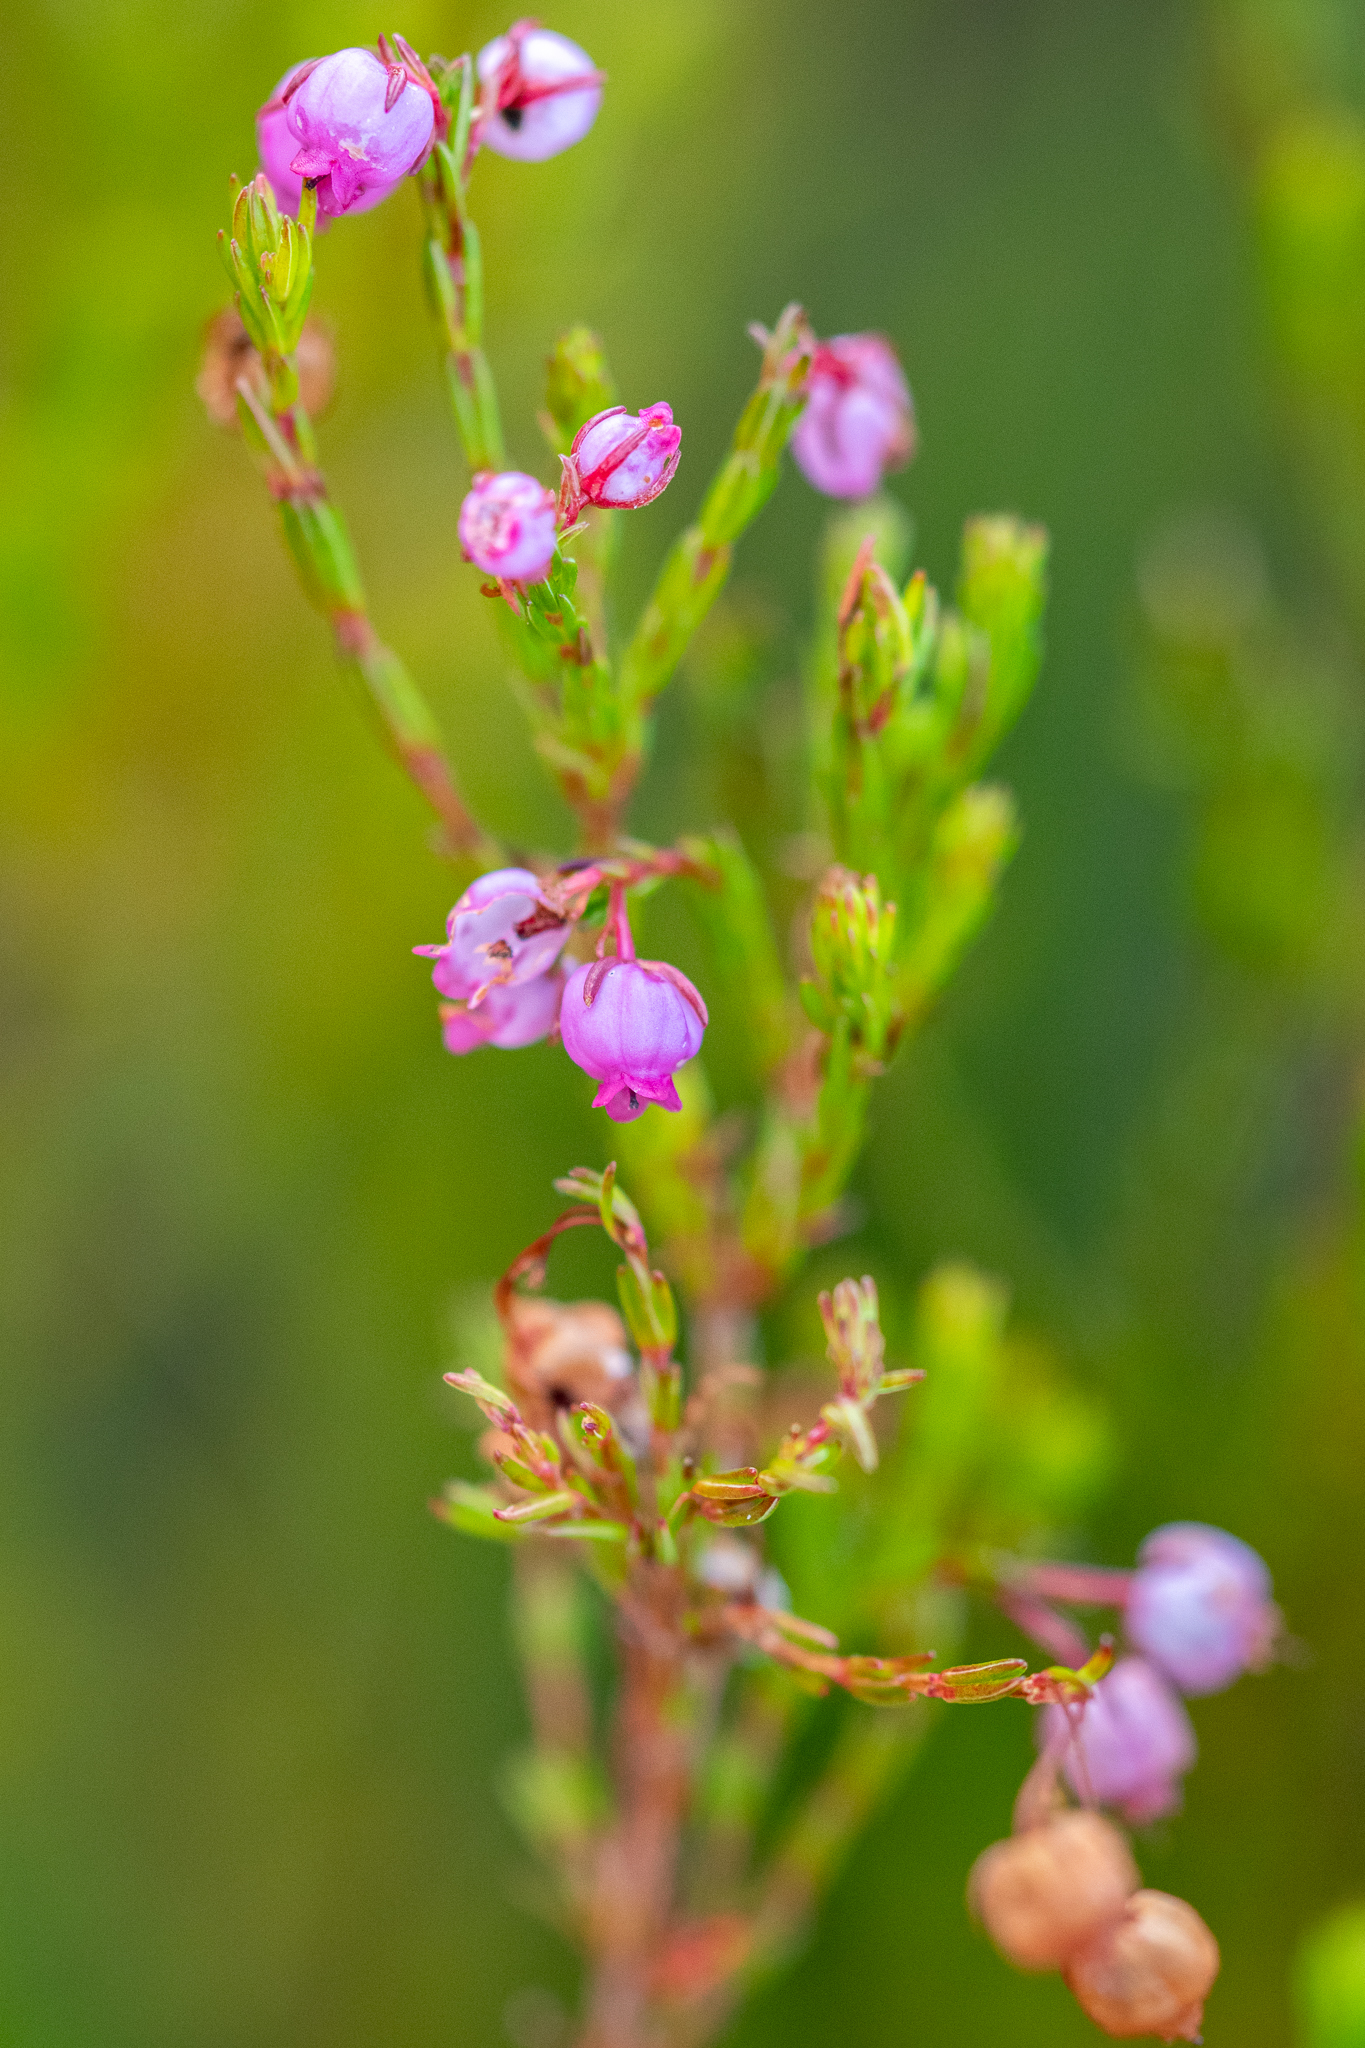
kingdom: Plantae
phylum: Tracheophyta
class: Magnoliopsida
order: Ericales
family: Ericaceae
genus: Erica
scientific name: Erica laeta
